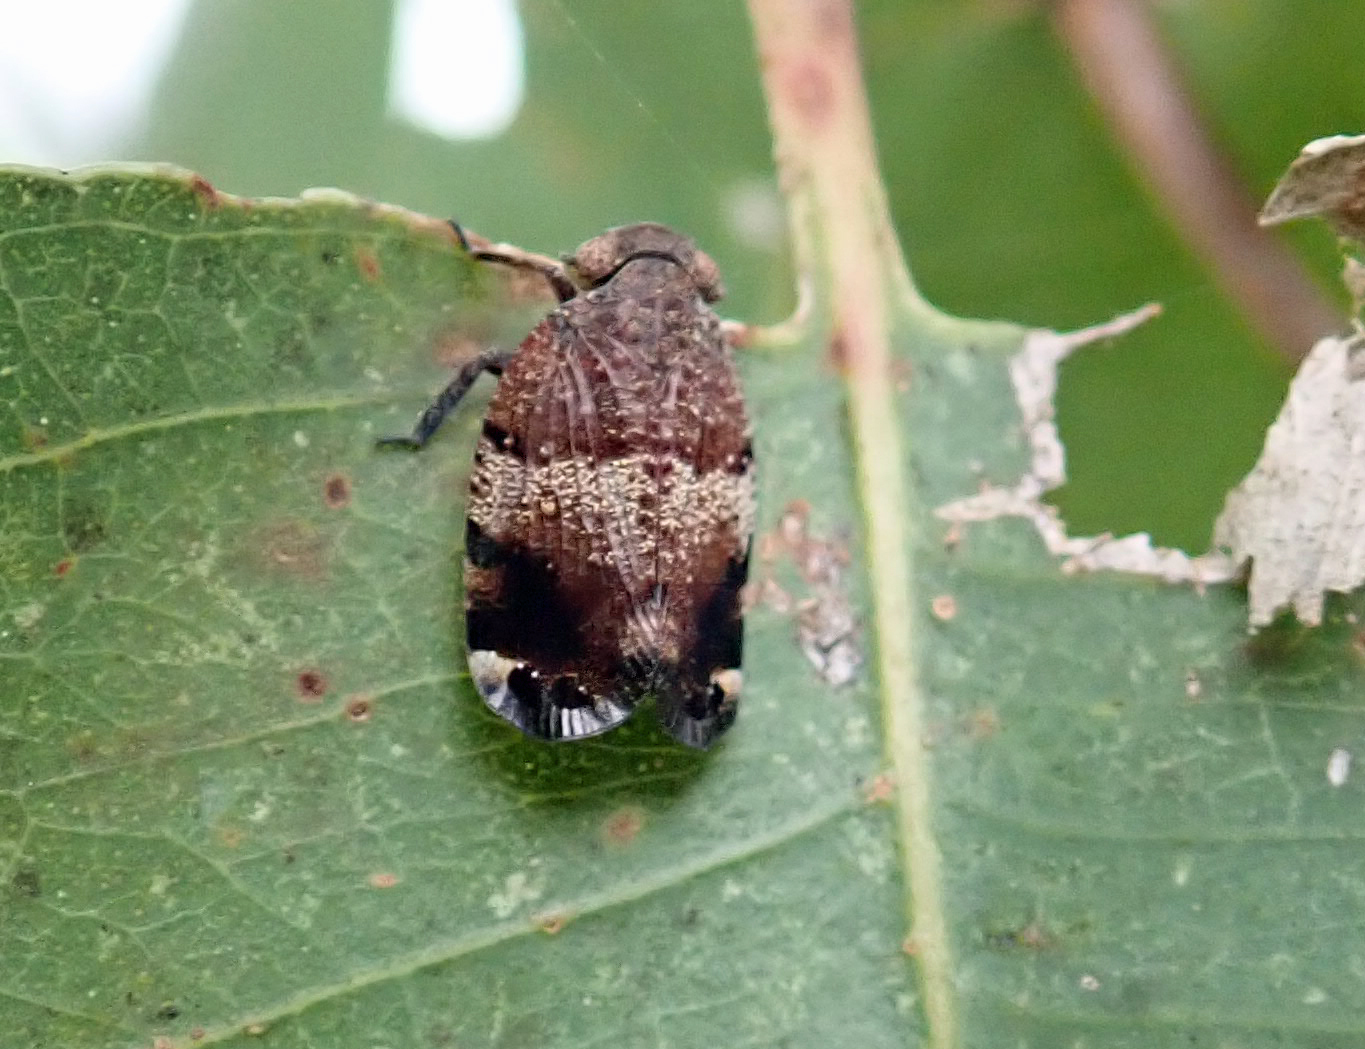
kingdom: Animalia
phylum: Arthropoda
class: Insecta
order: Hemiptera
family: Eurybrachidae
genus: Platybrachys
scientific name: Platybrachys decemmacula
